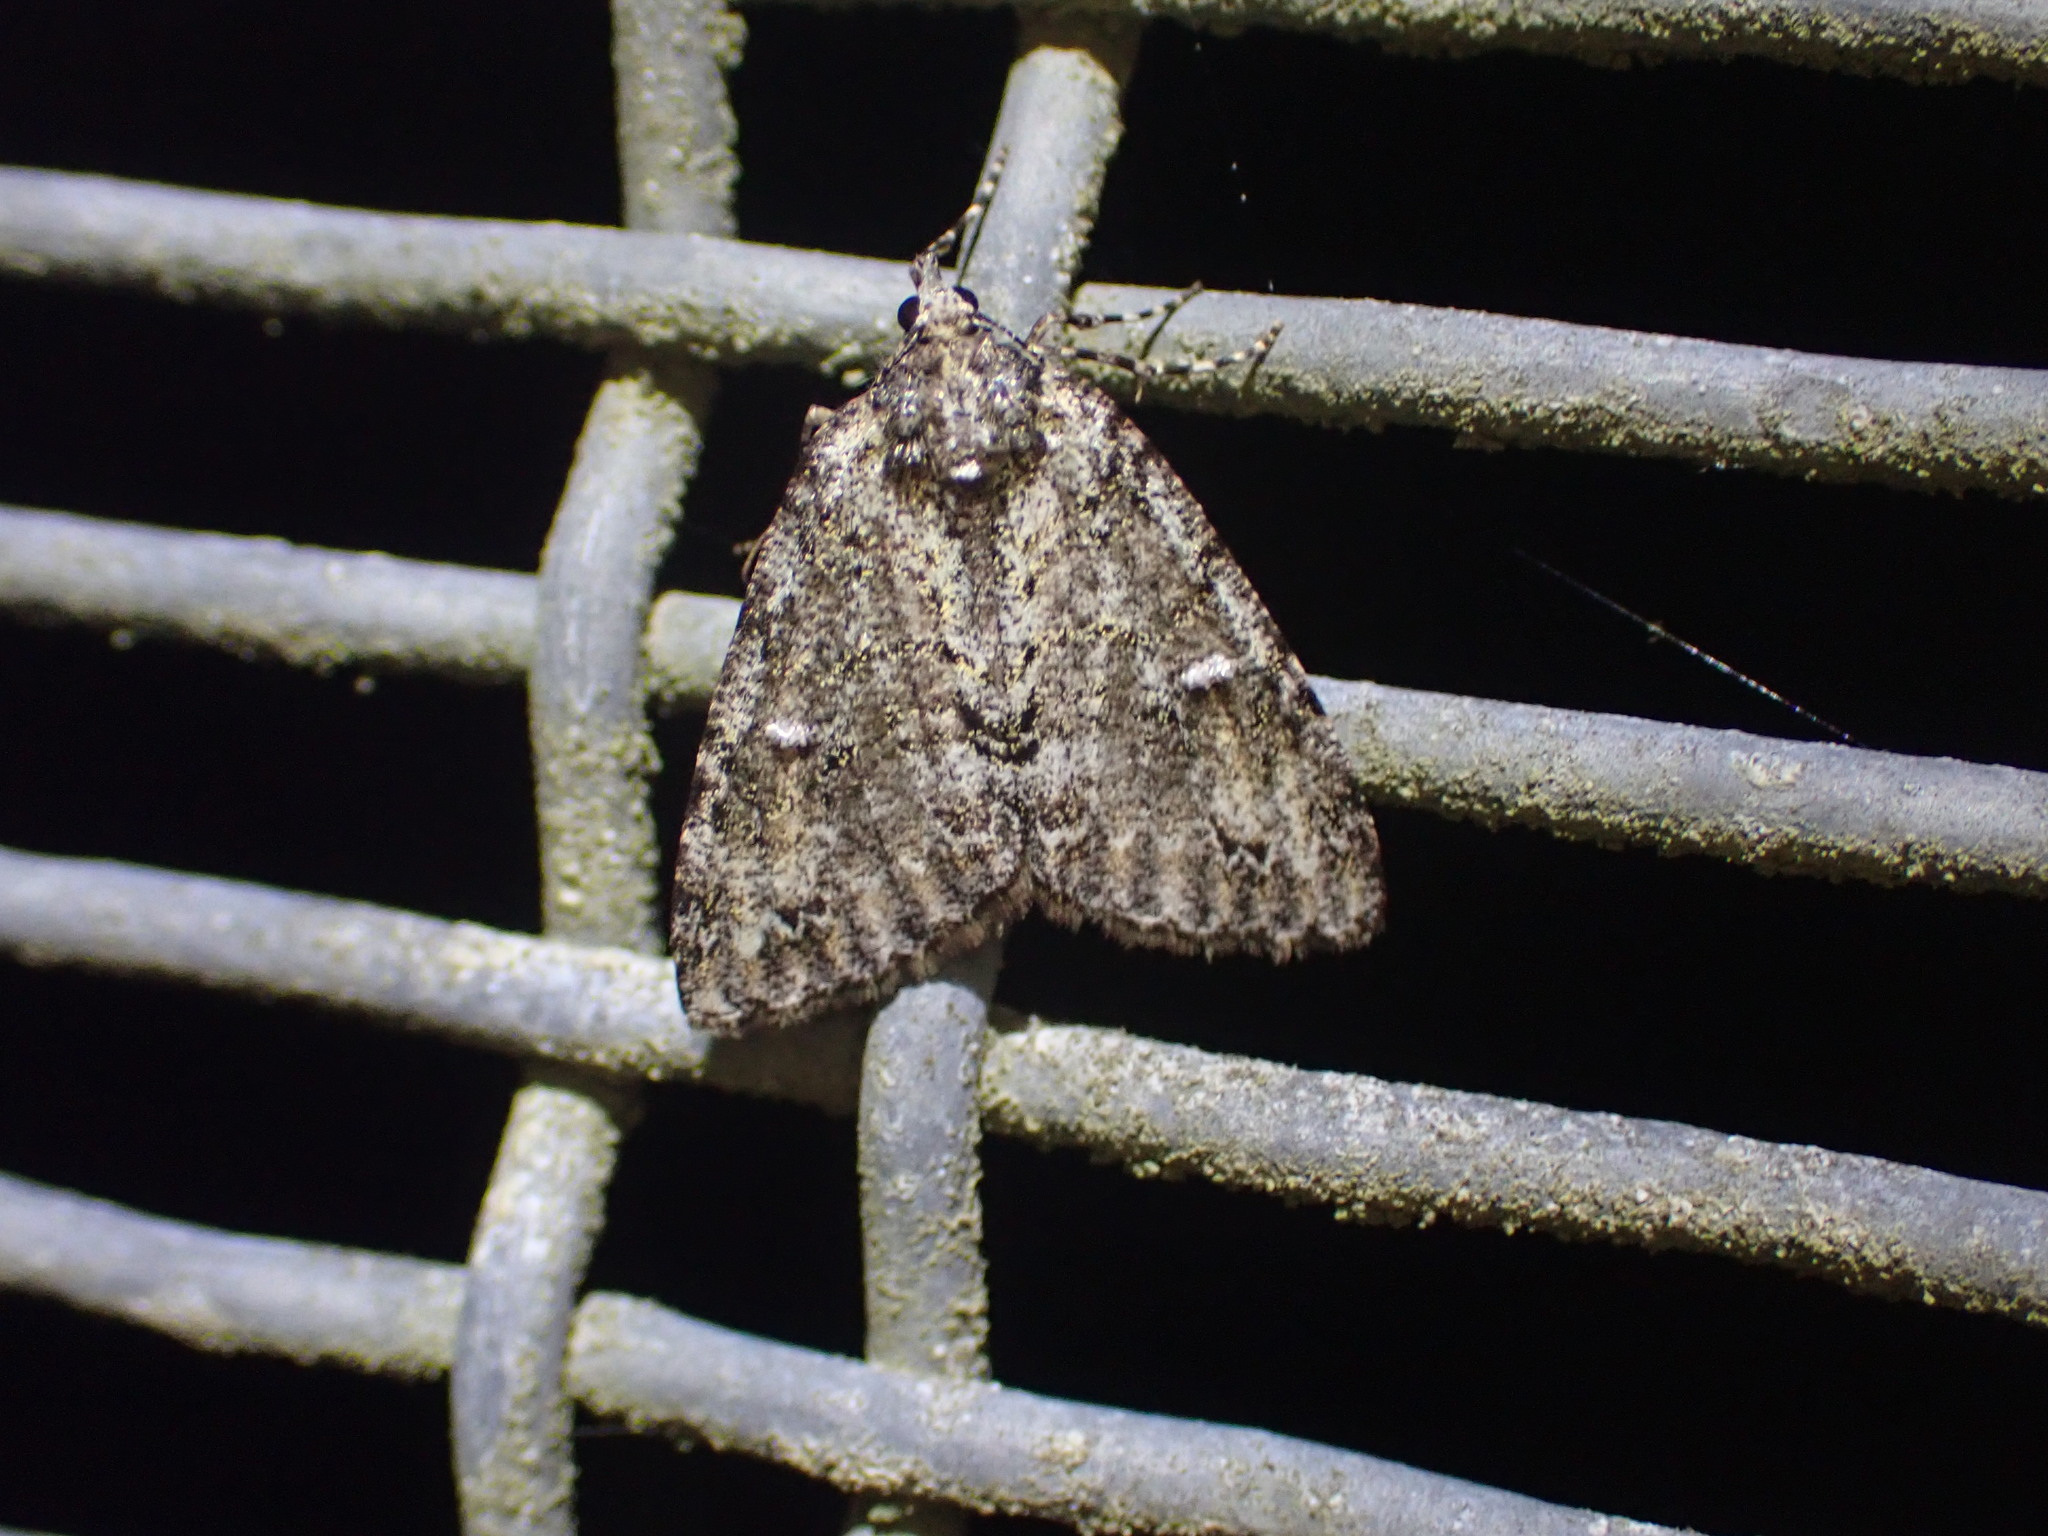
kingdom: Animalia
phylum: Arthropoda
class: Insecta
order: Lepidoptera
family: Geometridae
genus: Pseudocoremia
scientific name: Pseudocoremia suavis
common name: Common forest looper
